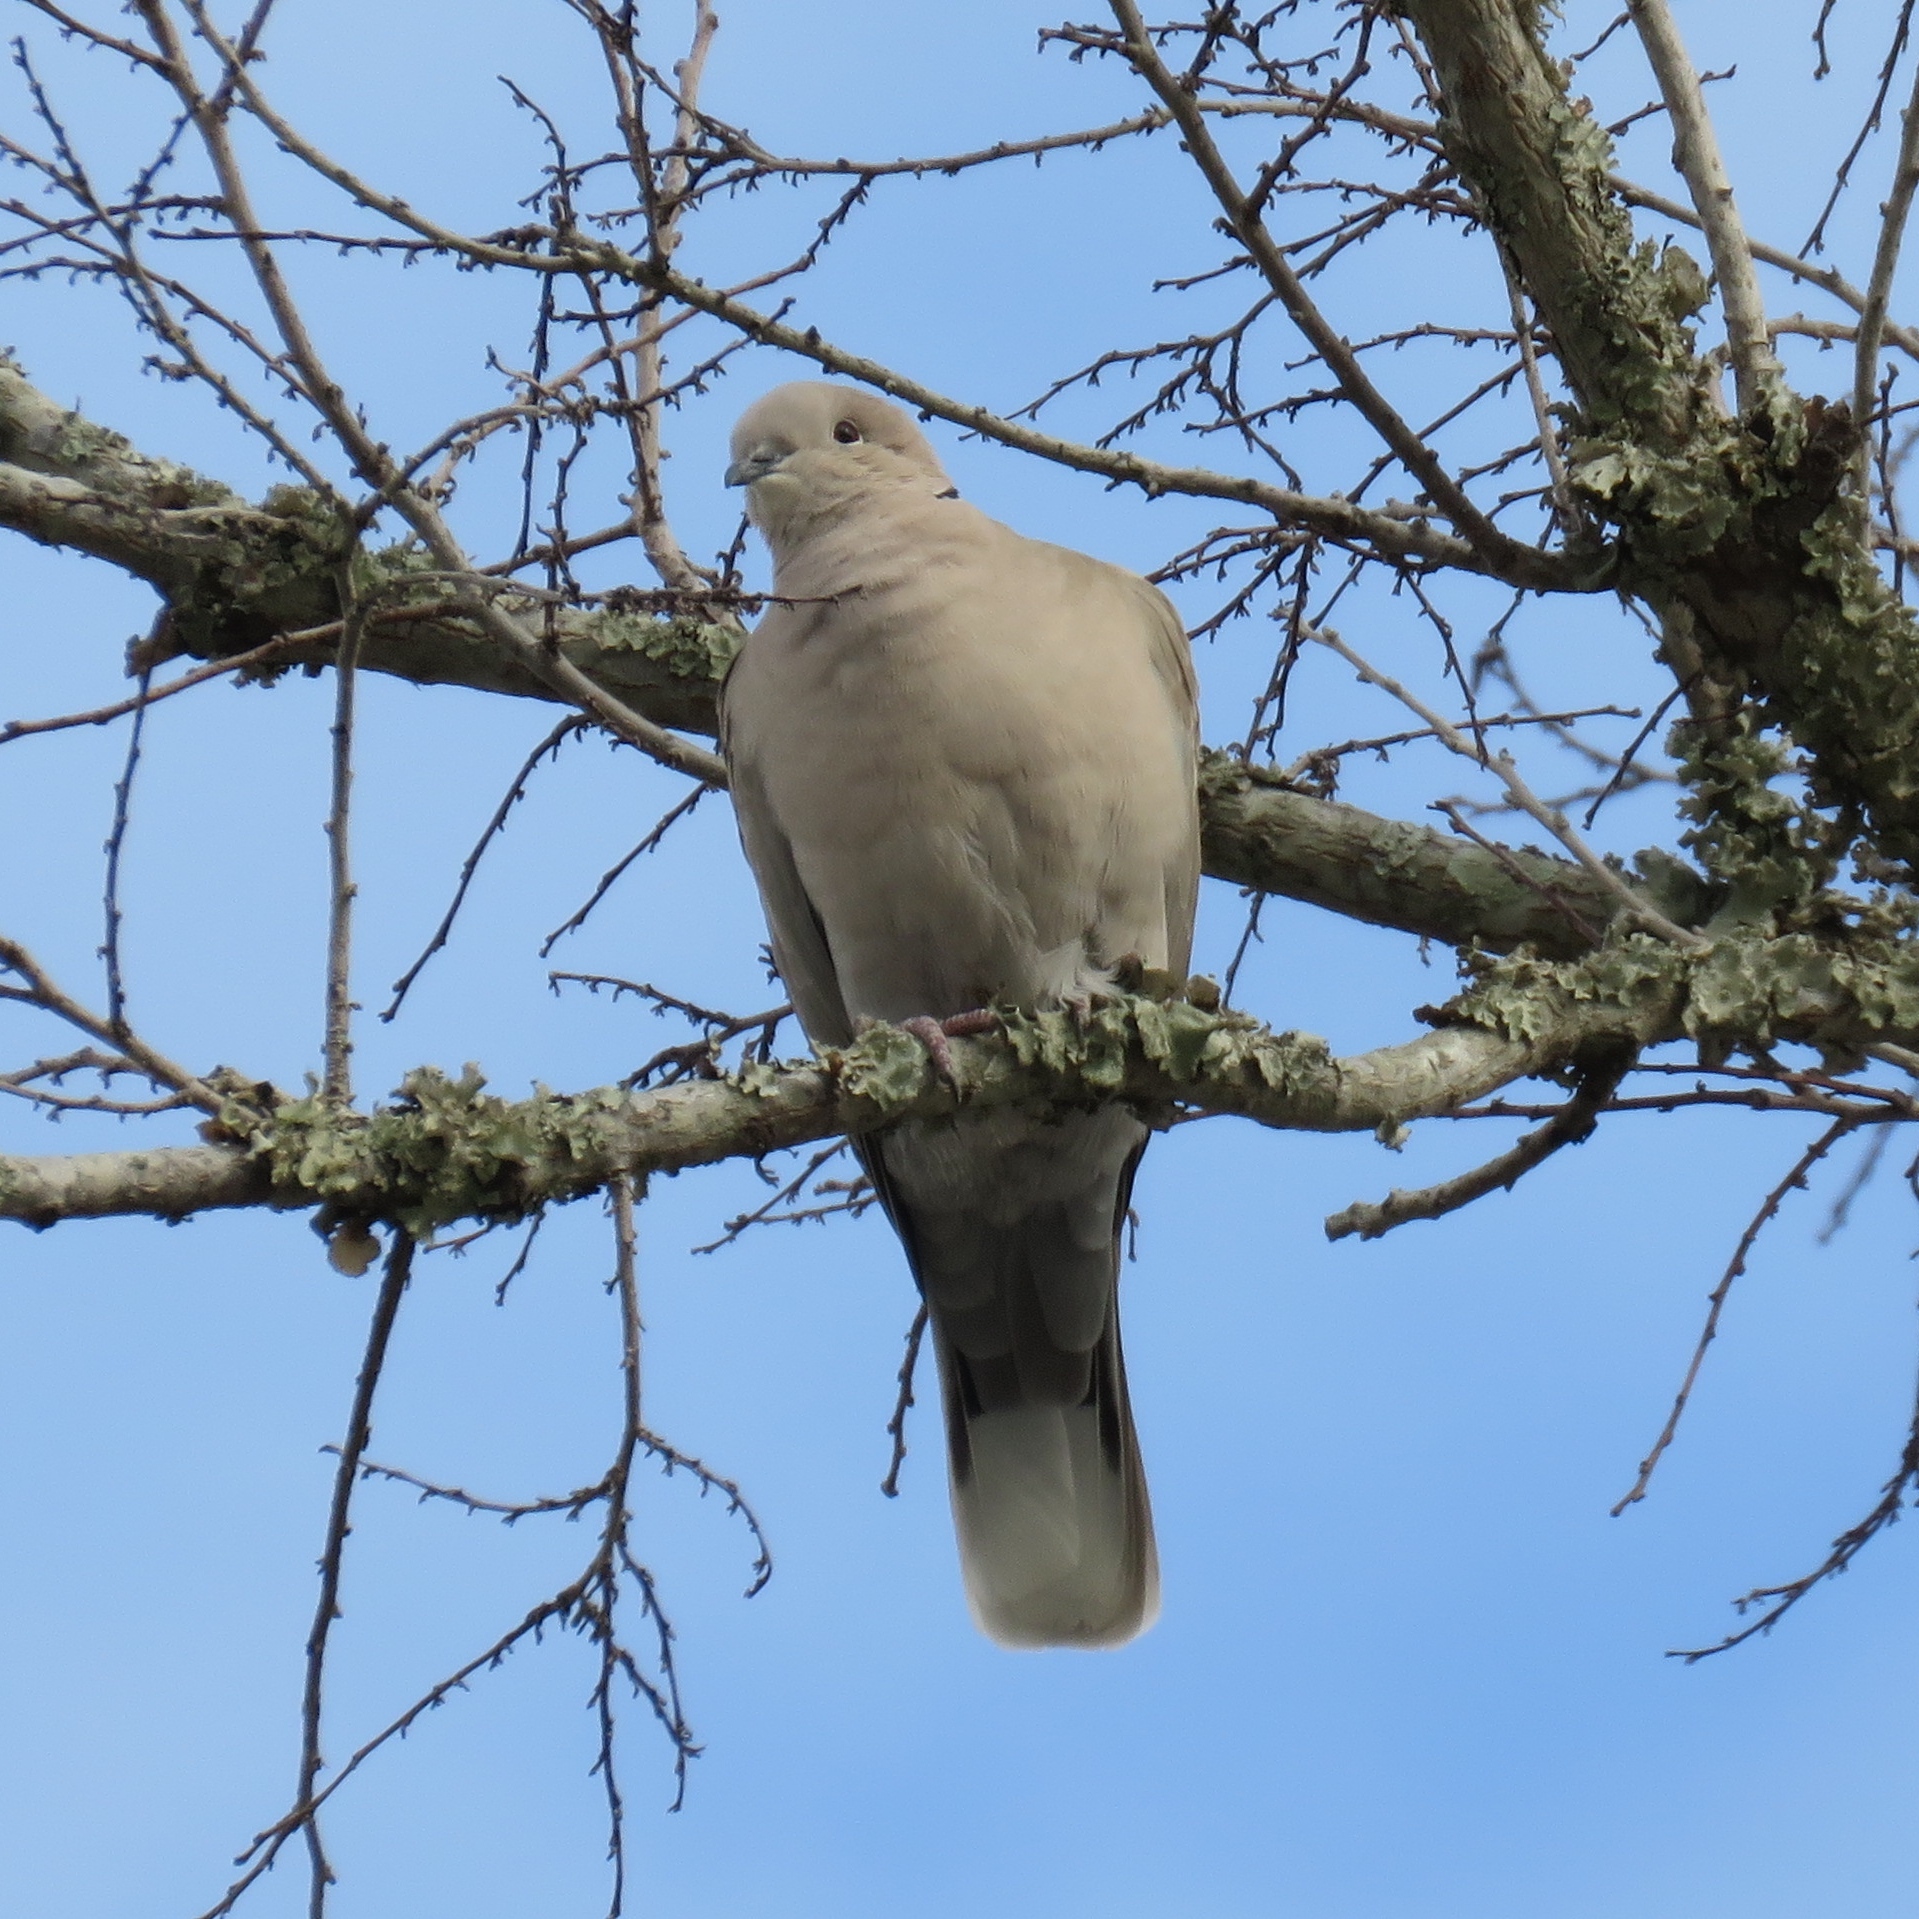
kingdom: Animalia
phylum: Chordata
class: Aves
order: Columbiformes
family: Columbidae
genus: Streptopelia
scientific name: Streptopelia decaocto
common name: Eurasian collared dove
